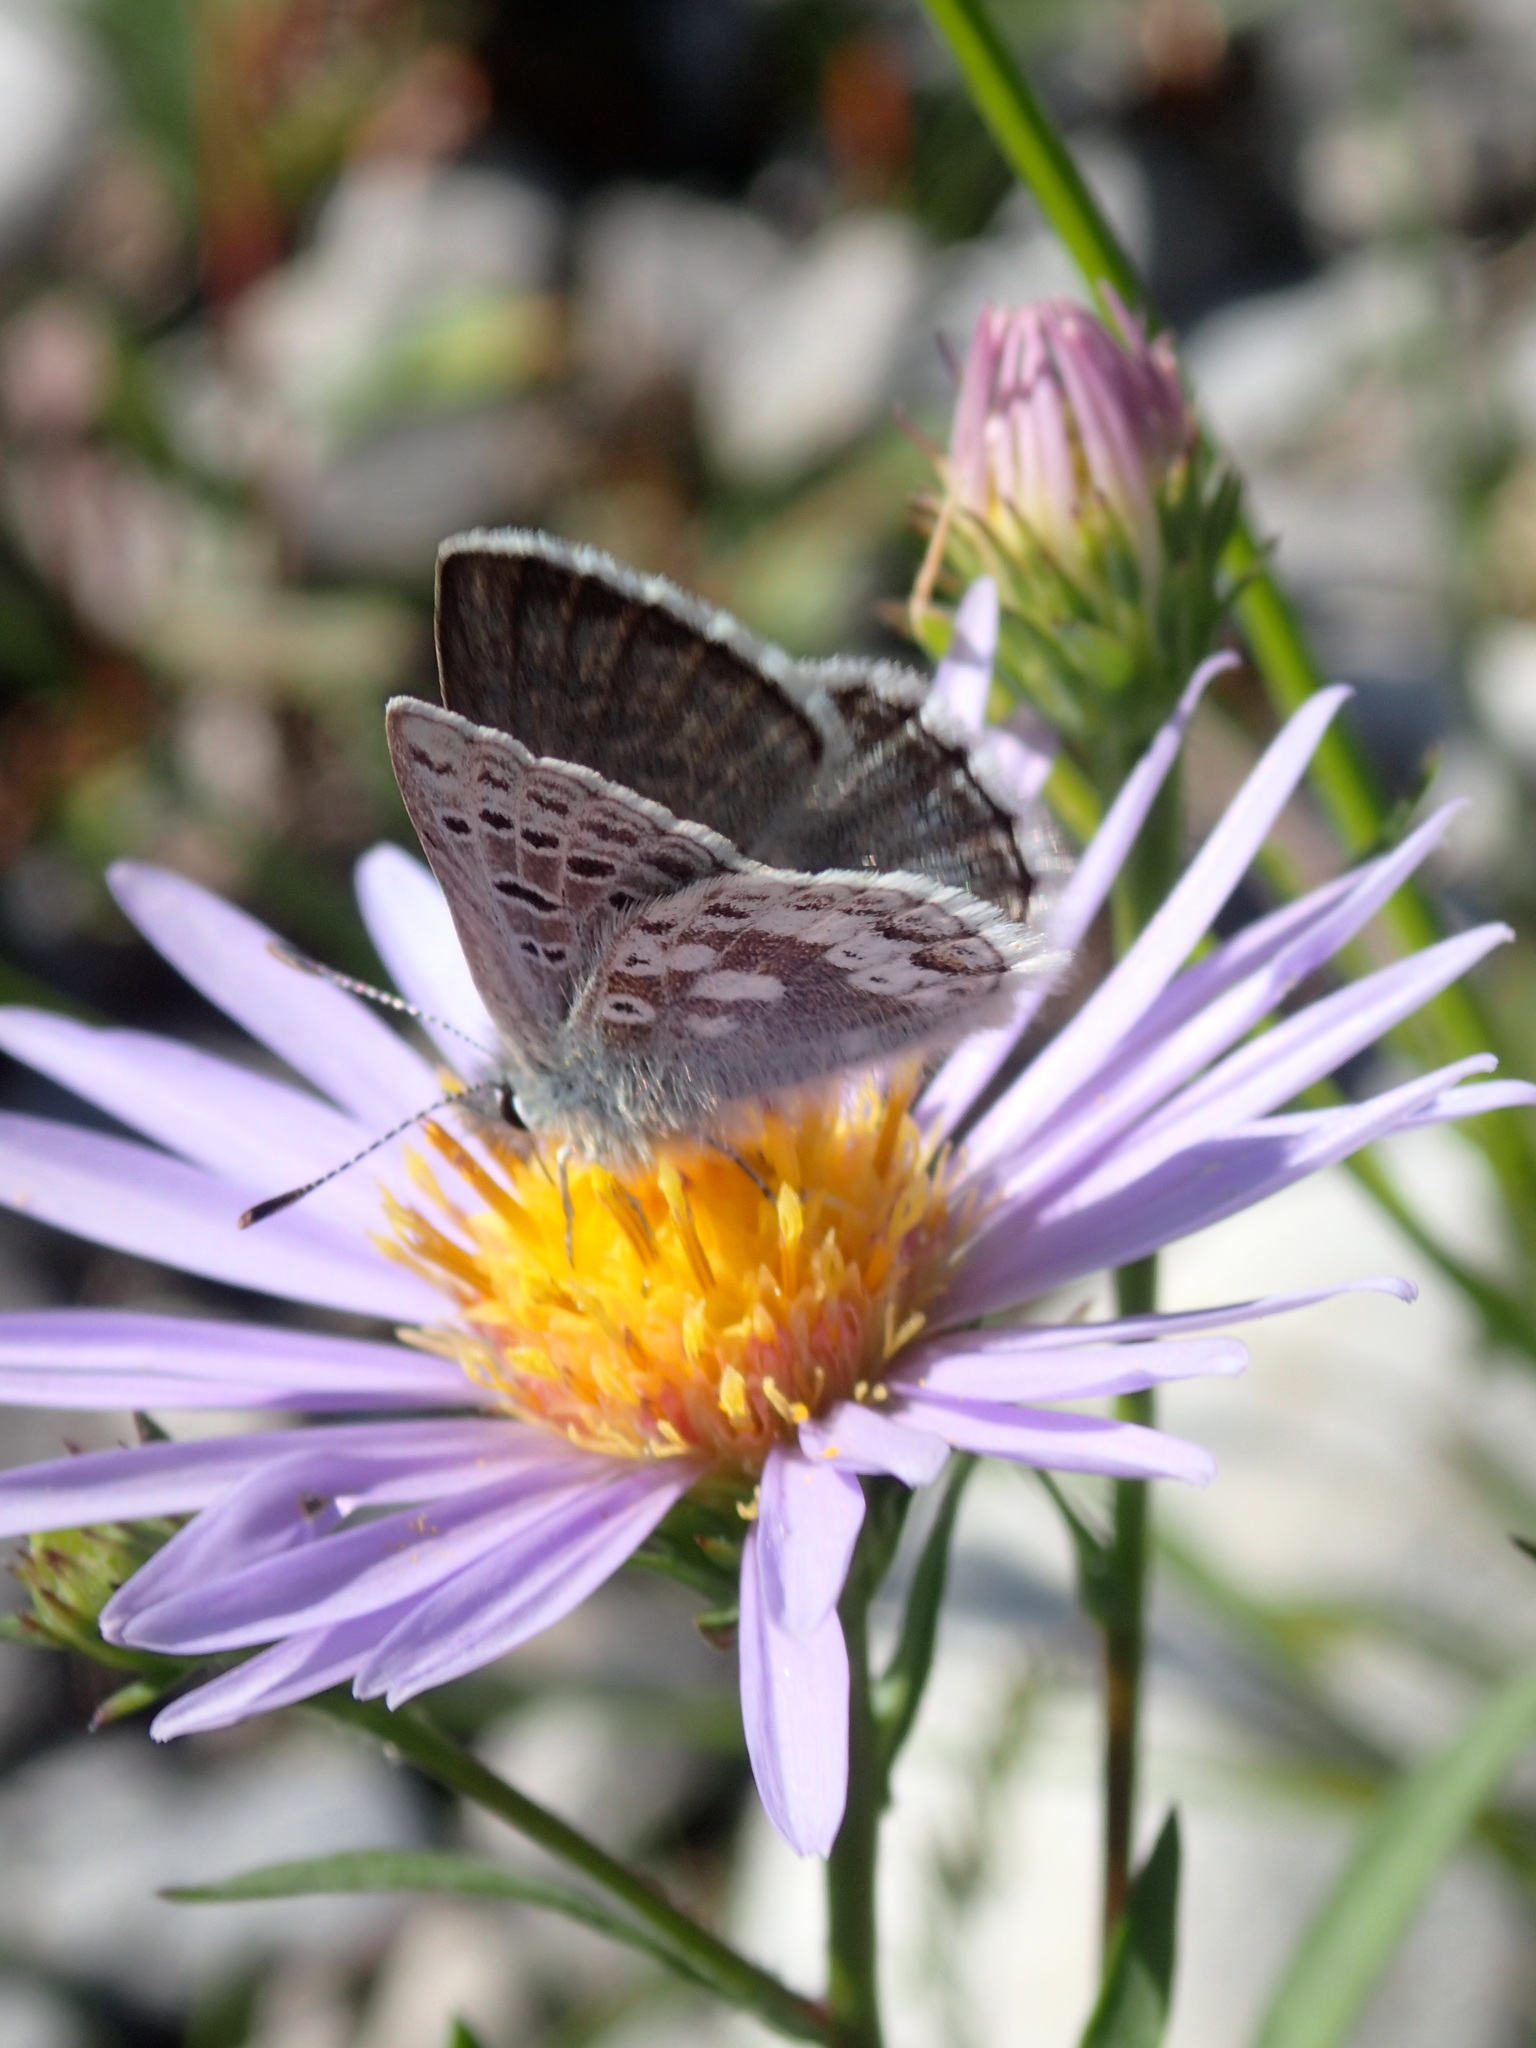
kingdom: Animalia
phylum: Arthropoda
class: Insecta
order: Lepidoptera
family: Lycaenidae
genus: Agriades
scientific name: Agriades glandon
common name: Glandon blue
